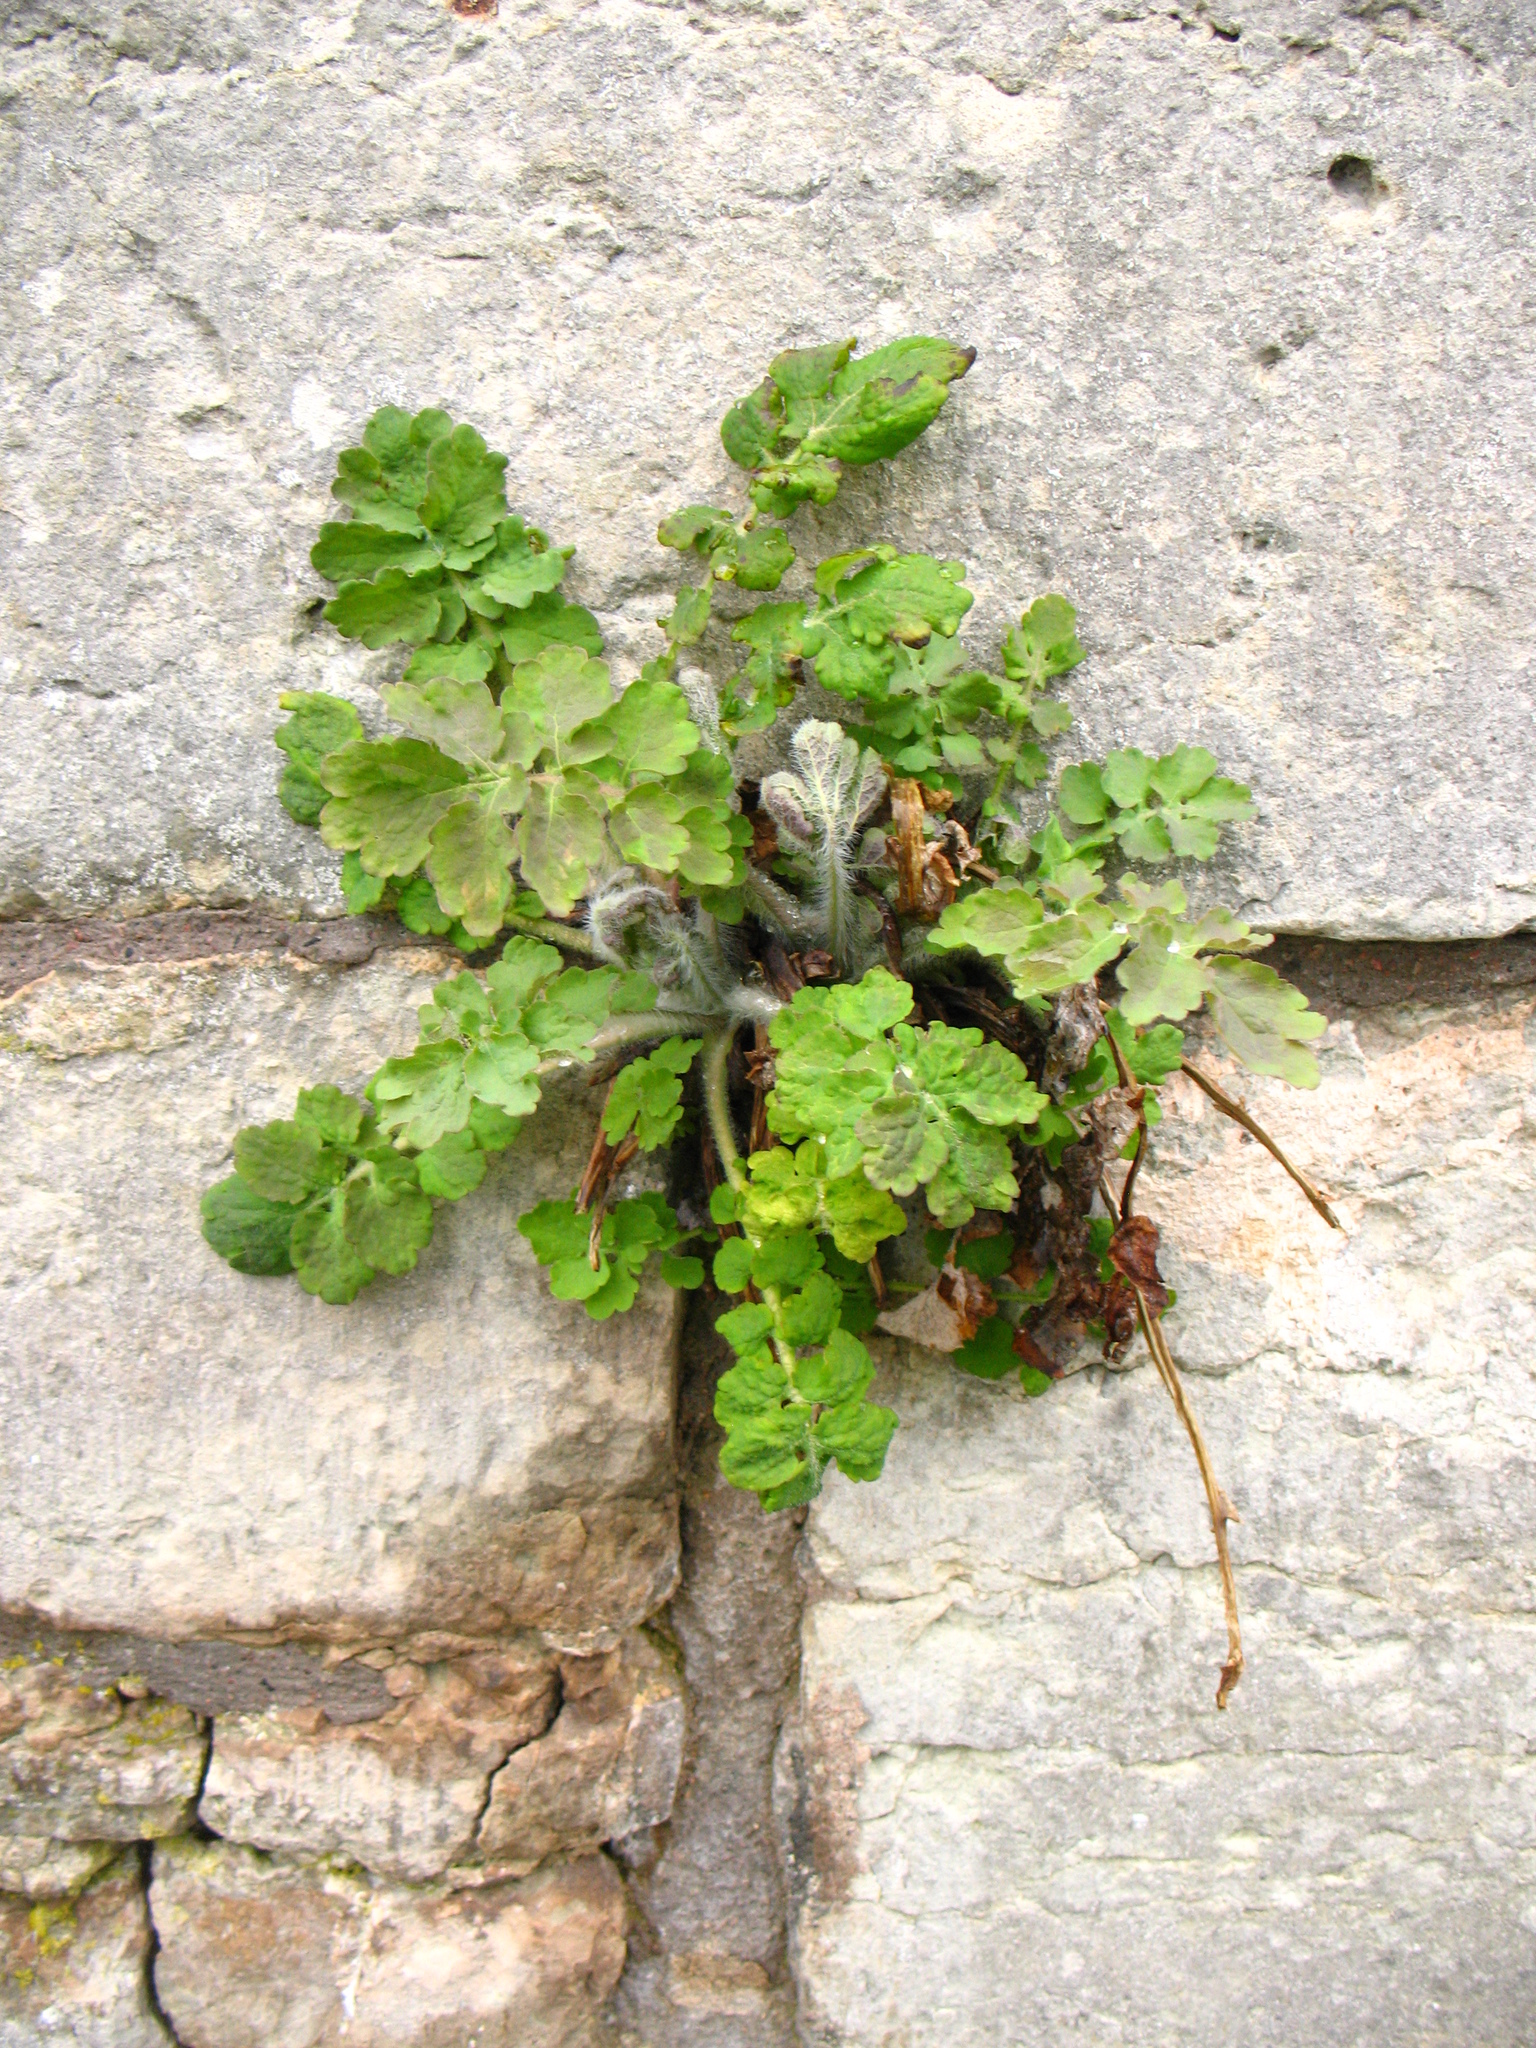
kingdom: Plantae
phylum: Tracheophyta
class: Magnoliopsida
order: Ranunculales
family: Papaveraceae
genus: Chelidonium
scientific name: Chelidonium majus
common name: Greater celandine
